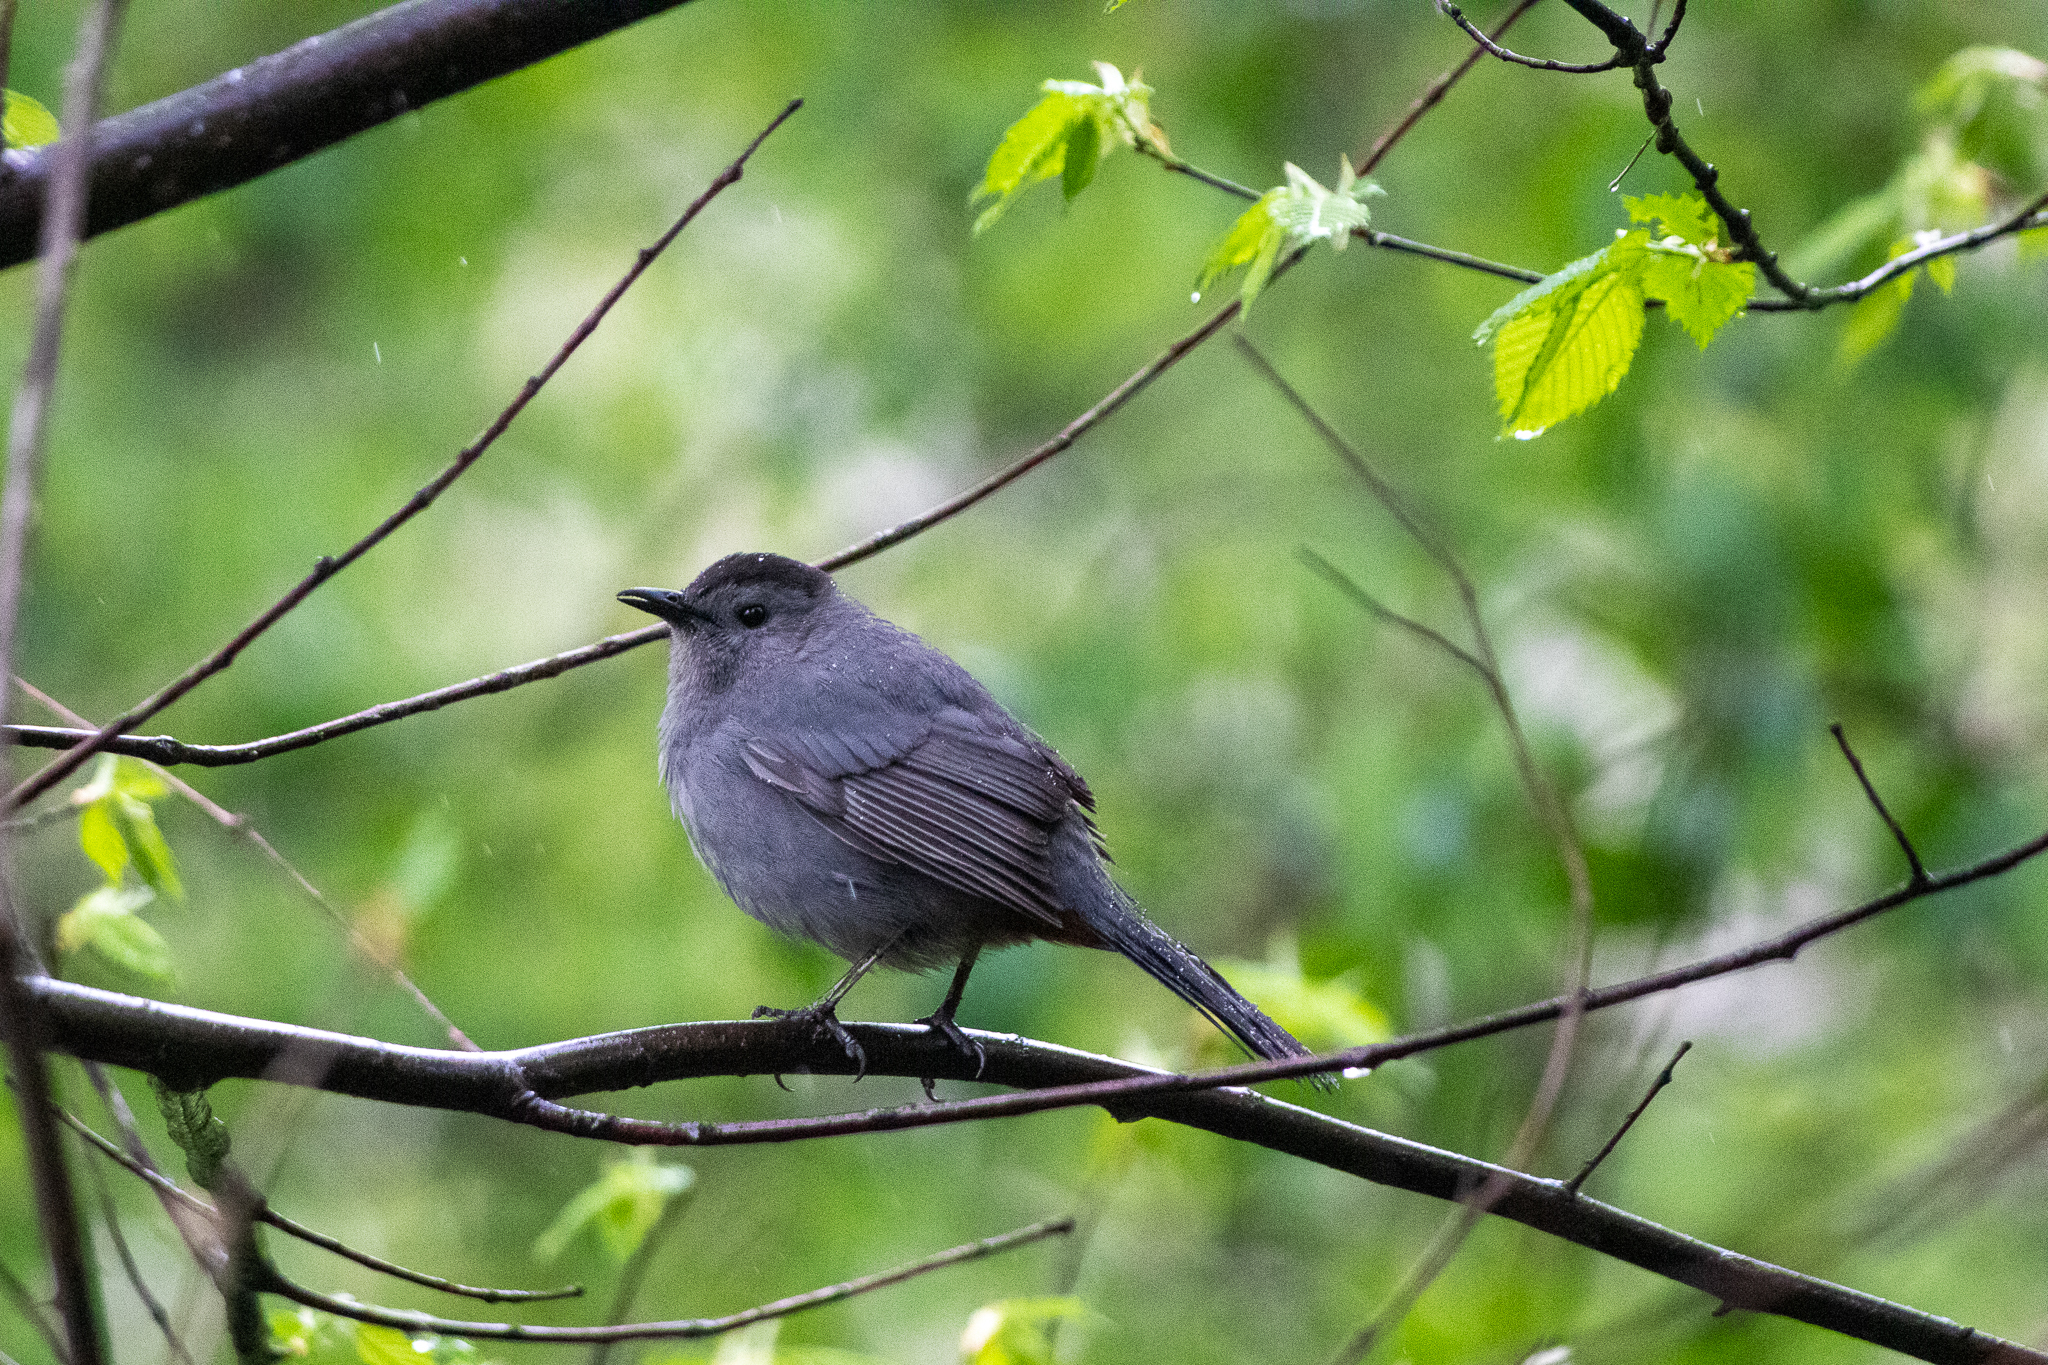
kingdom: Animalia
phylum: Chordata
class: Aves
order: Passeriformes
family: Mimidae
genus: Dumetella
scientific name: Dumetella carolinensis
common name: Gray catbird
